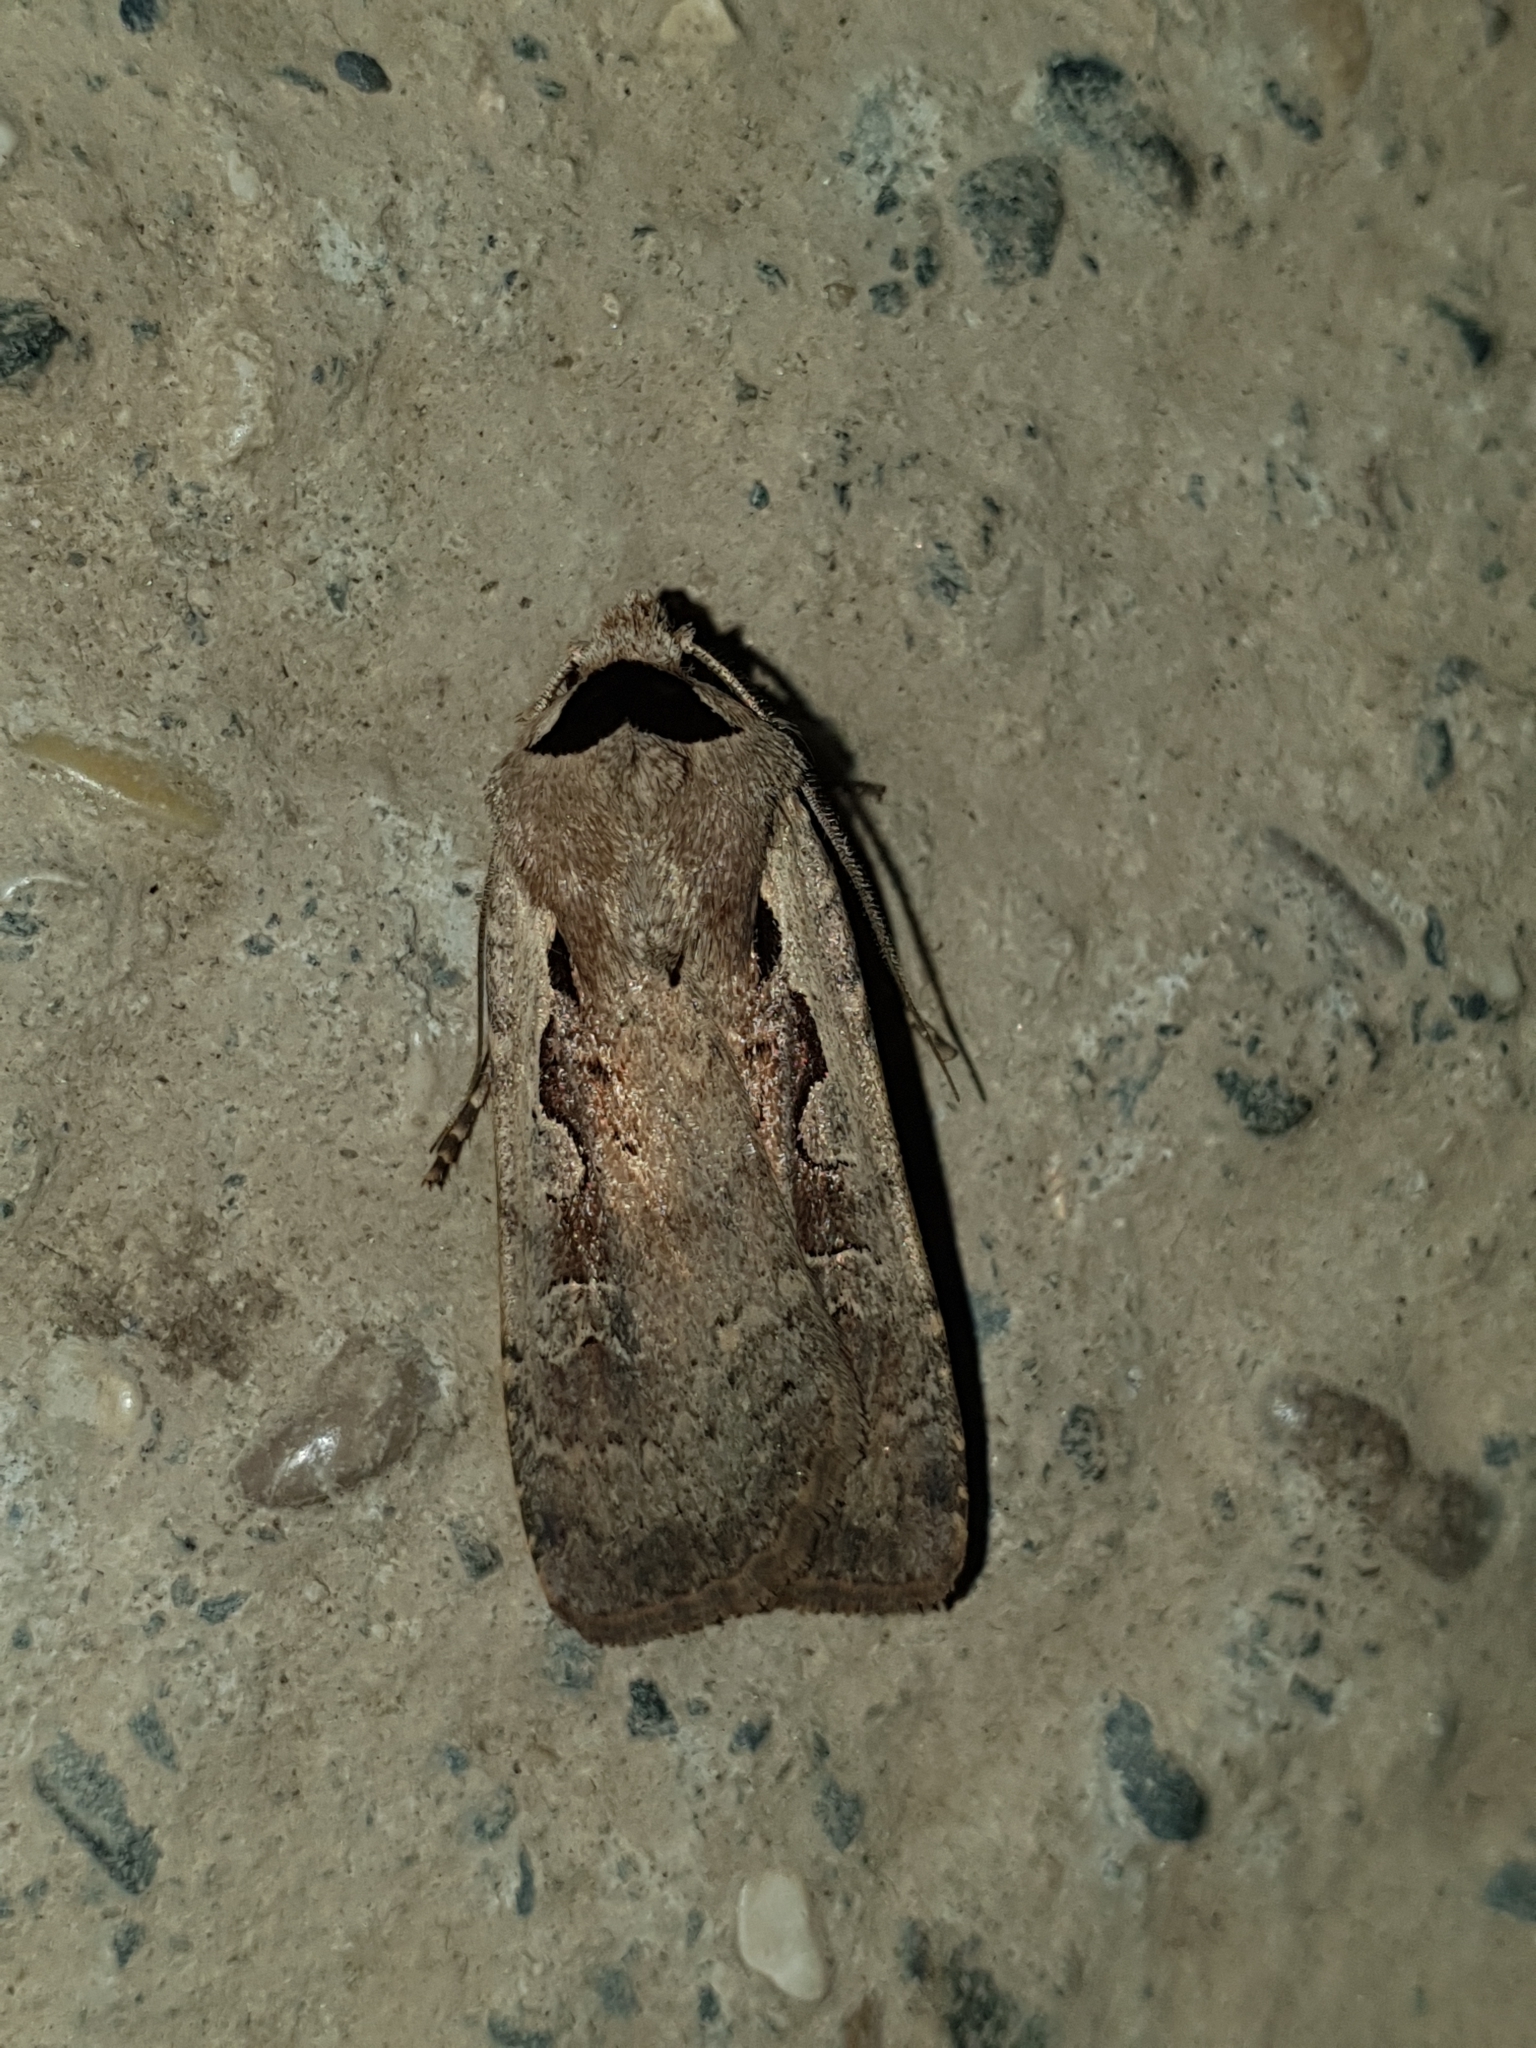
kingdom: Animalia
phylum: Arthropoda
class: Insecta
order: Lepidoptera
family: Noctuidae
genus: Basistriga
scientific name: Basistriga flammatra
